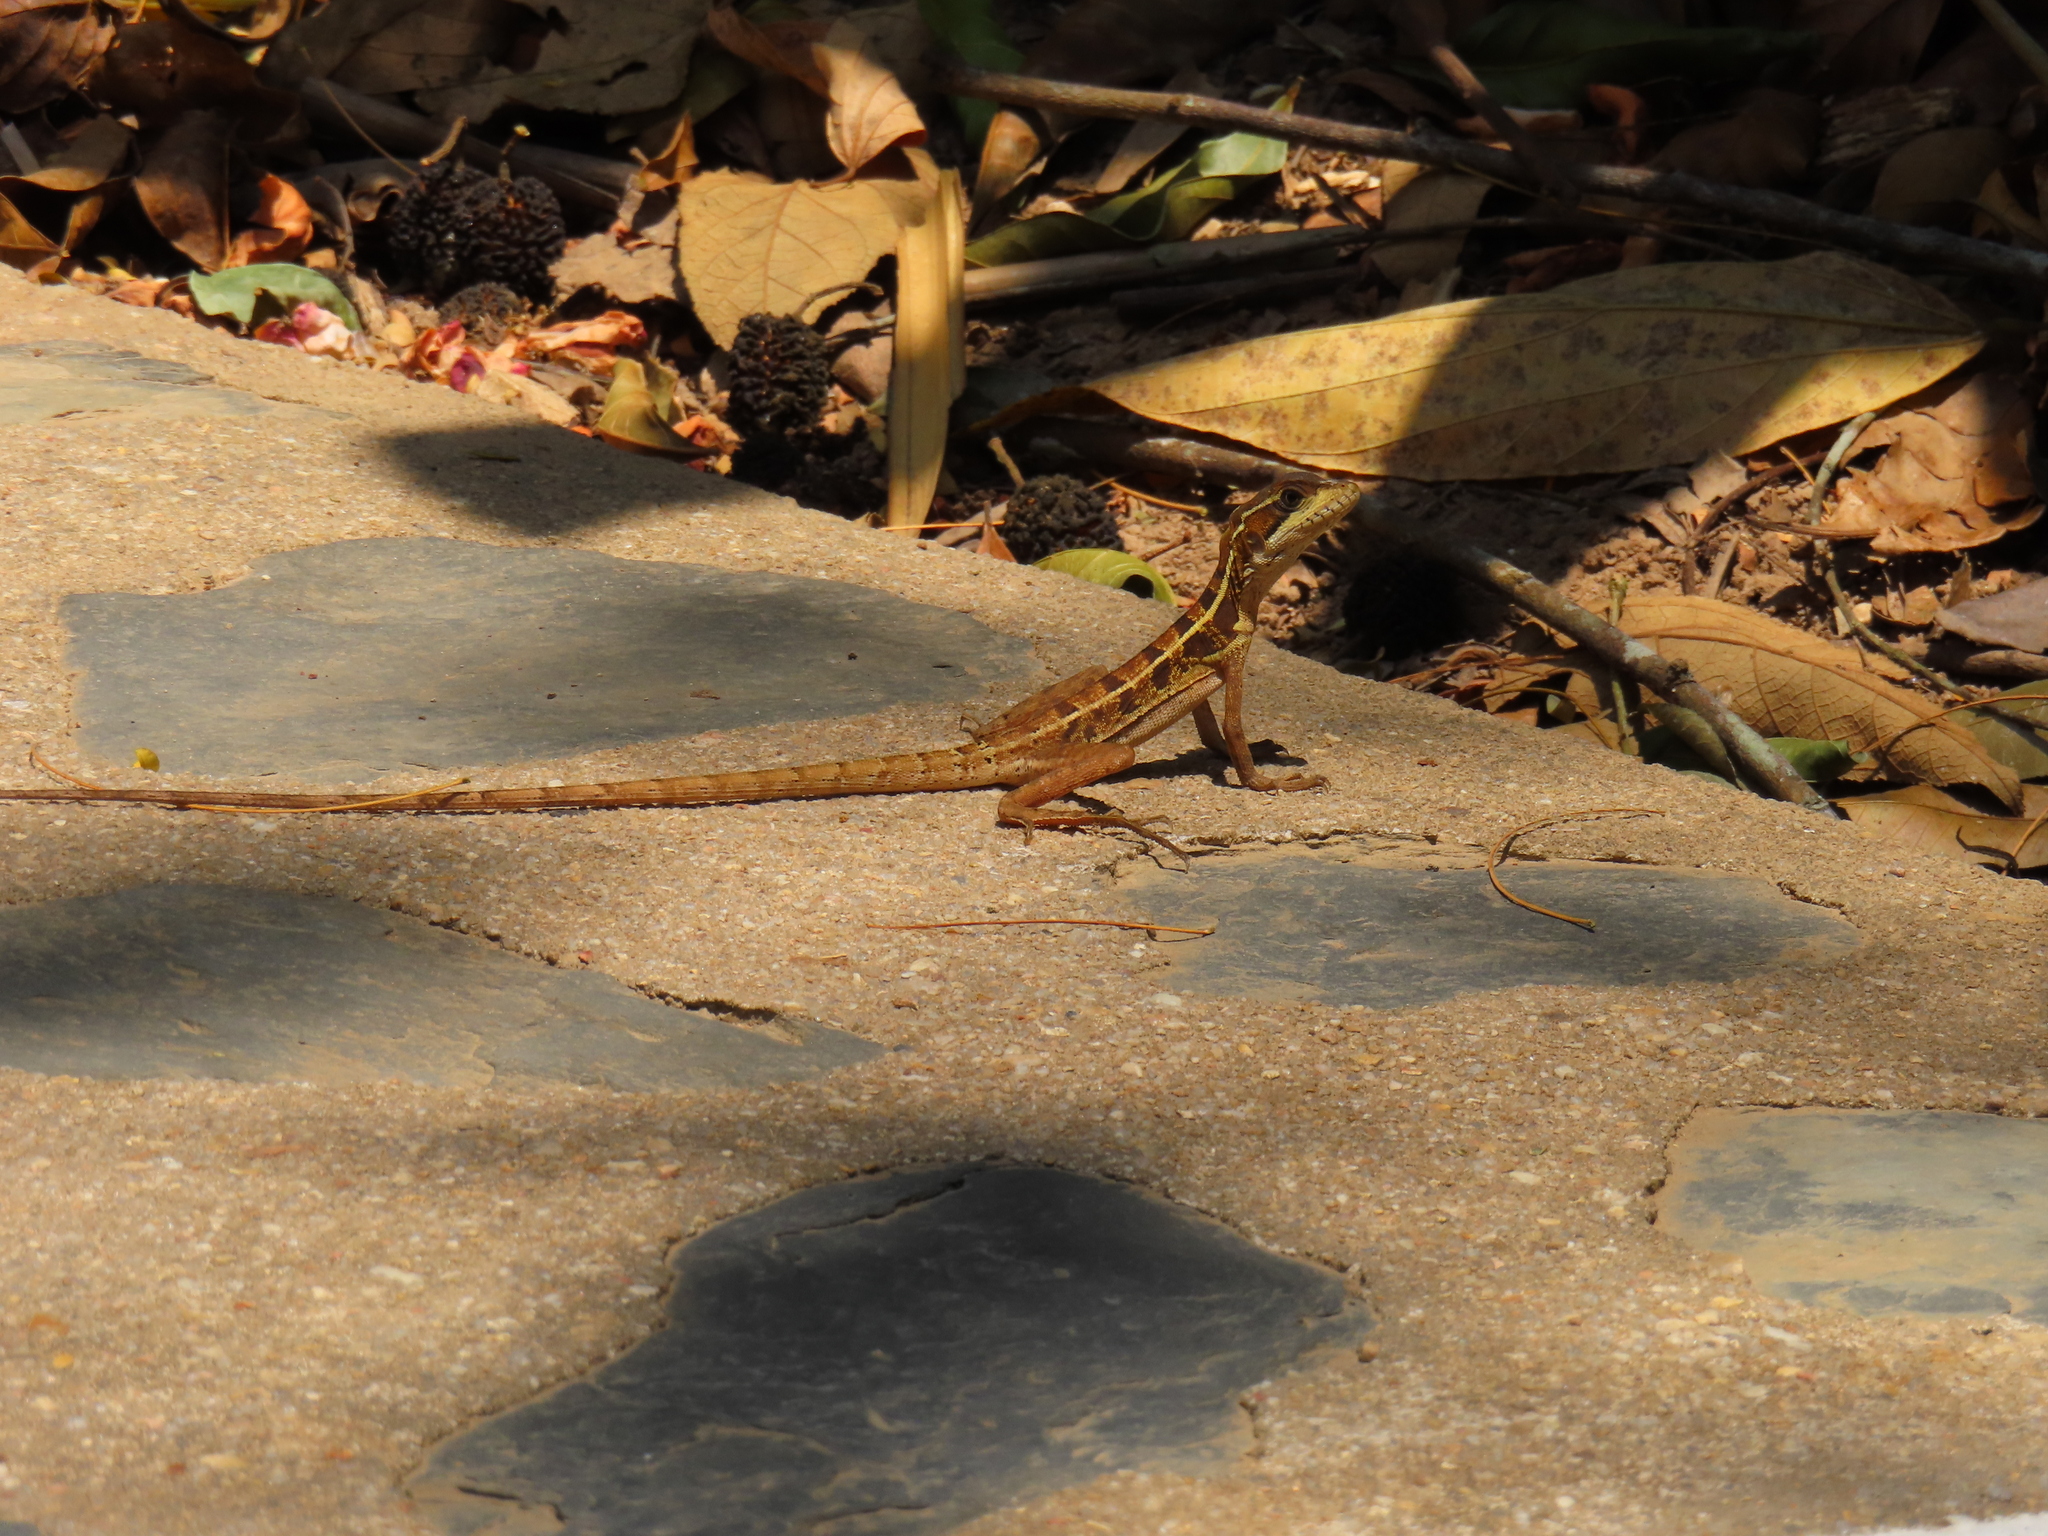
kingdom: Animalia
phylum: Chordata
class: Squamata
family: Corytophanidae
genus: Basiliscus
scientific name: Basiliscus vittatus
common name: Brown basilisk
